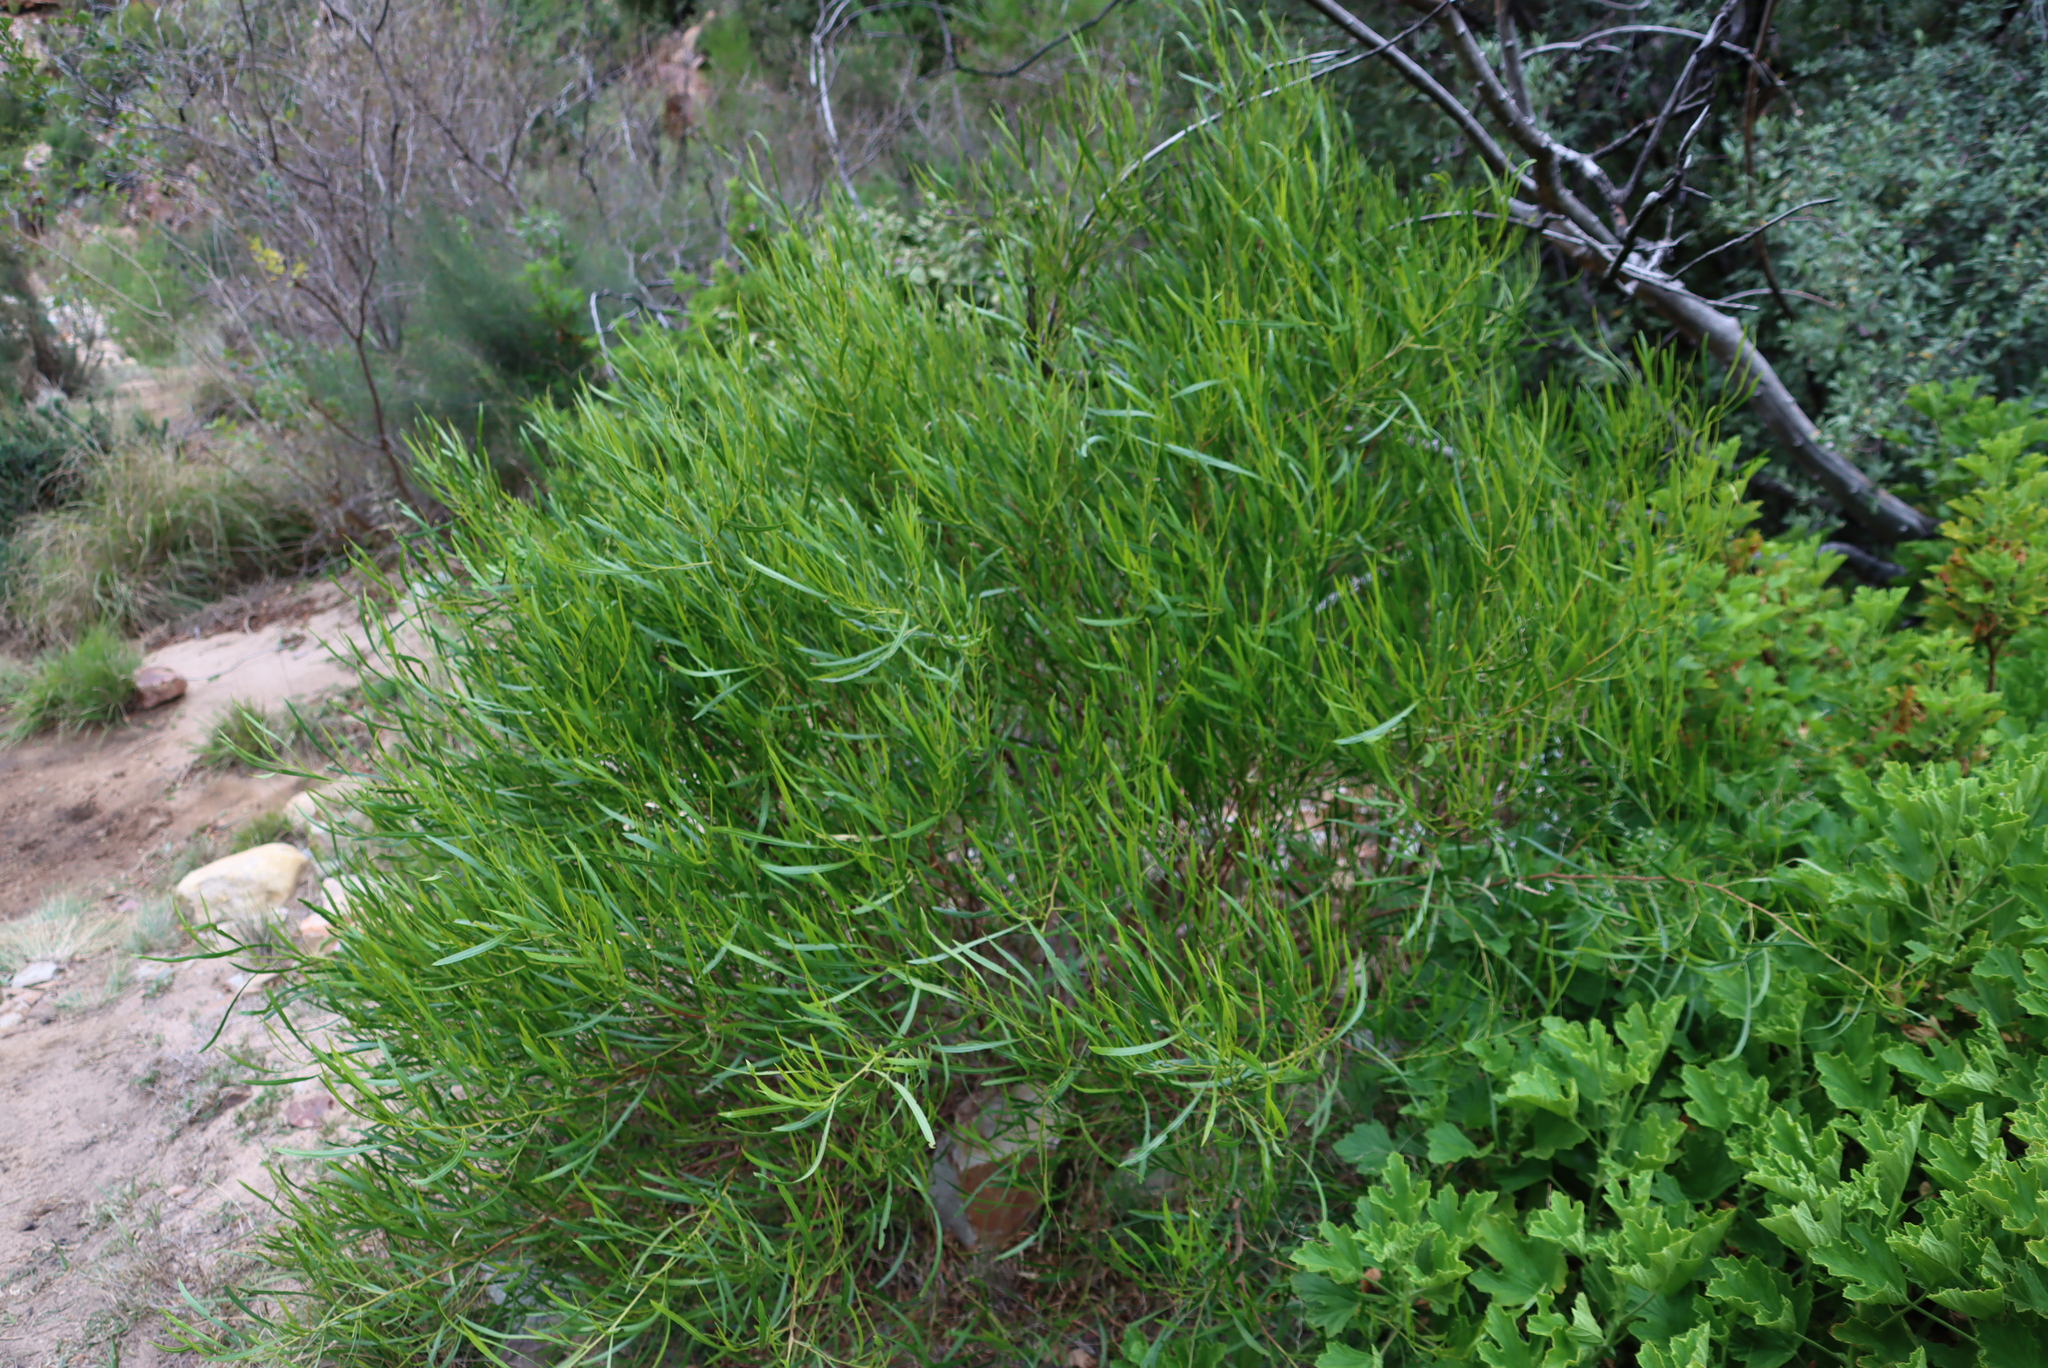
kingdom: Plantae
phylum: Tracheophyta
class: Magnoliopsida
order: Sapindales
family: Sapindaceae
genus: Dodonaea
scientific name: Dodonaea viscosa
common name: Hopbush
